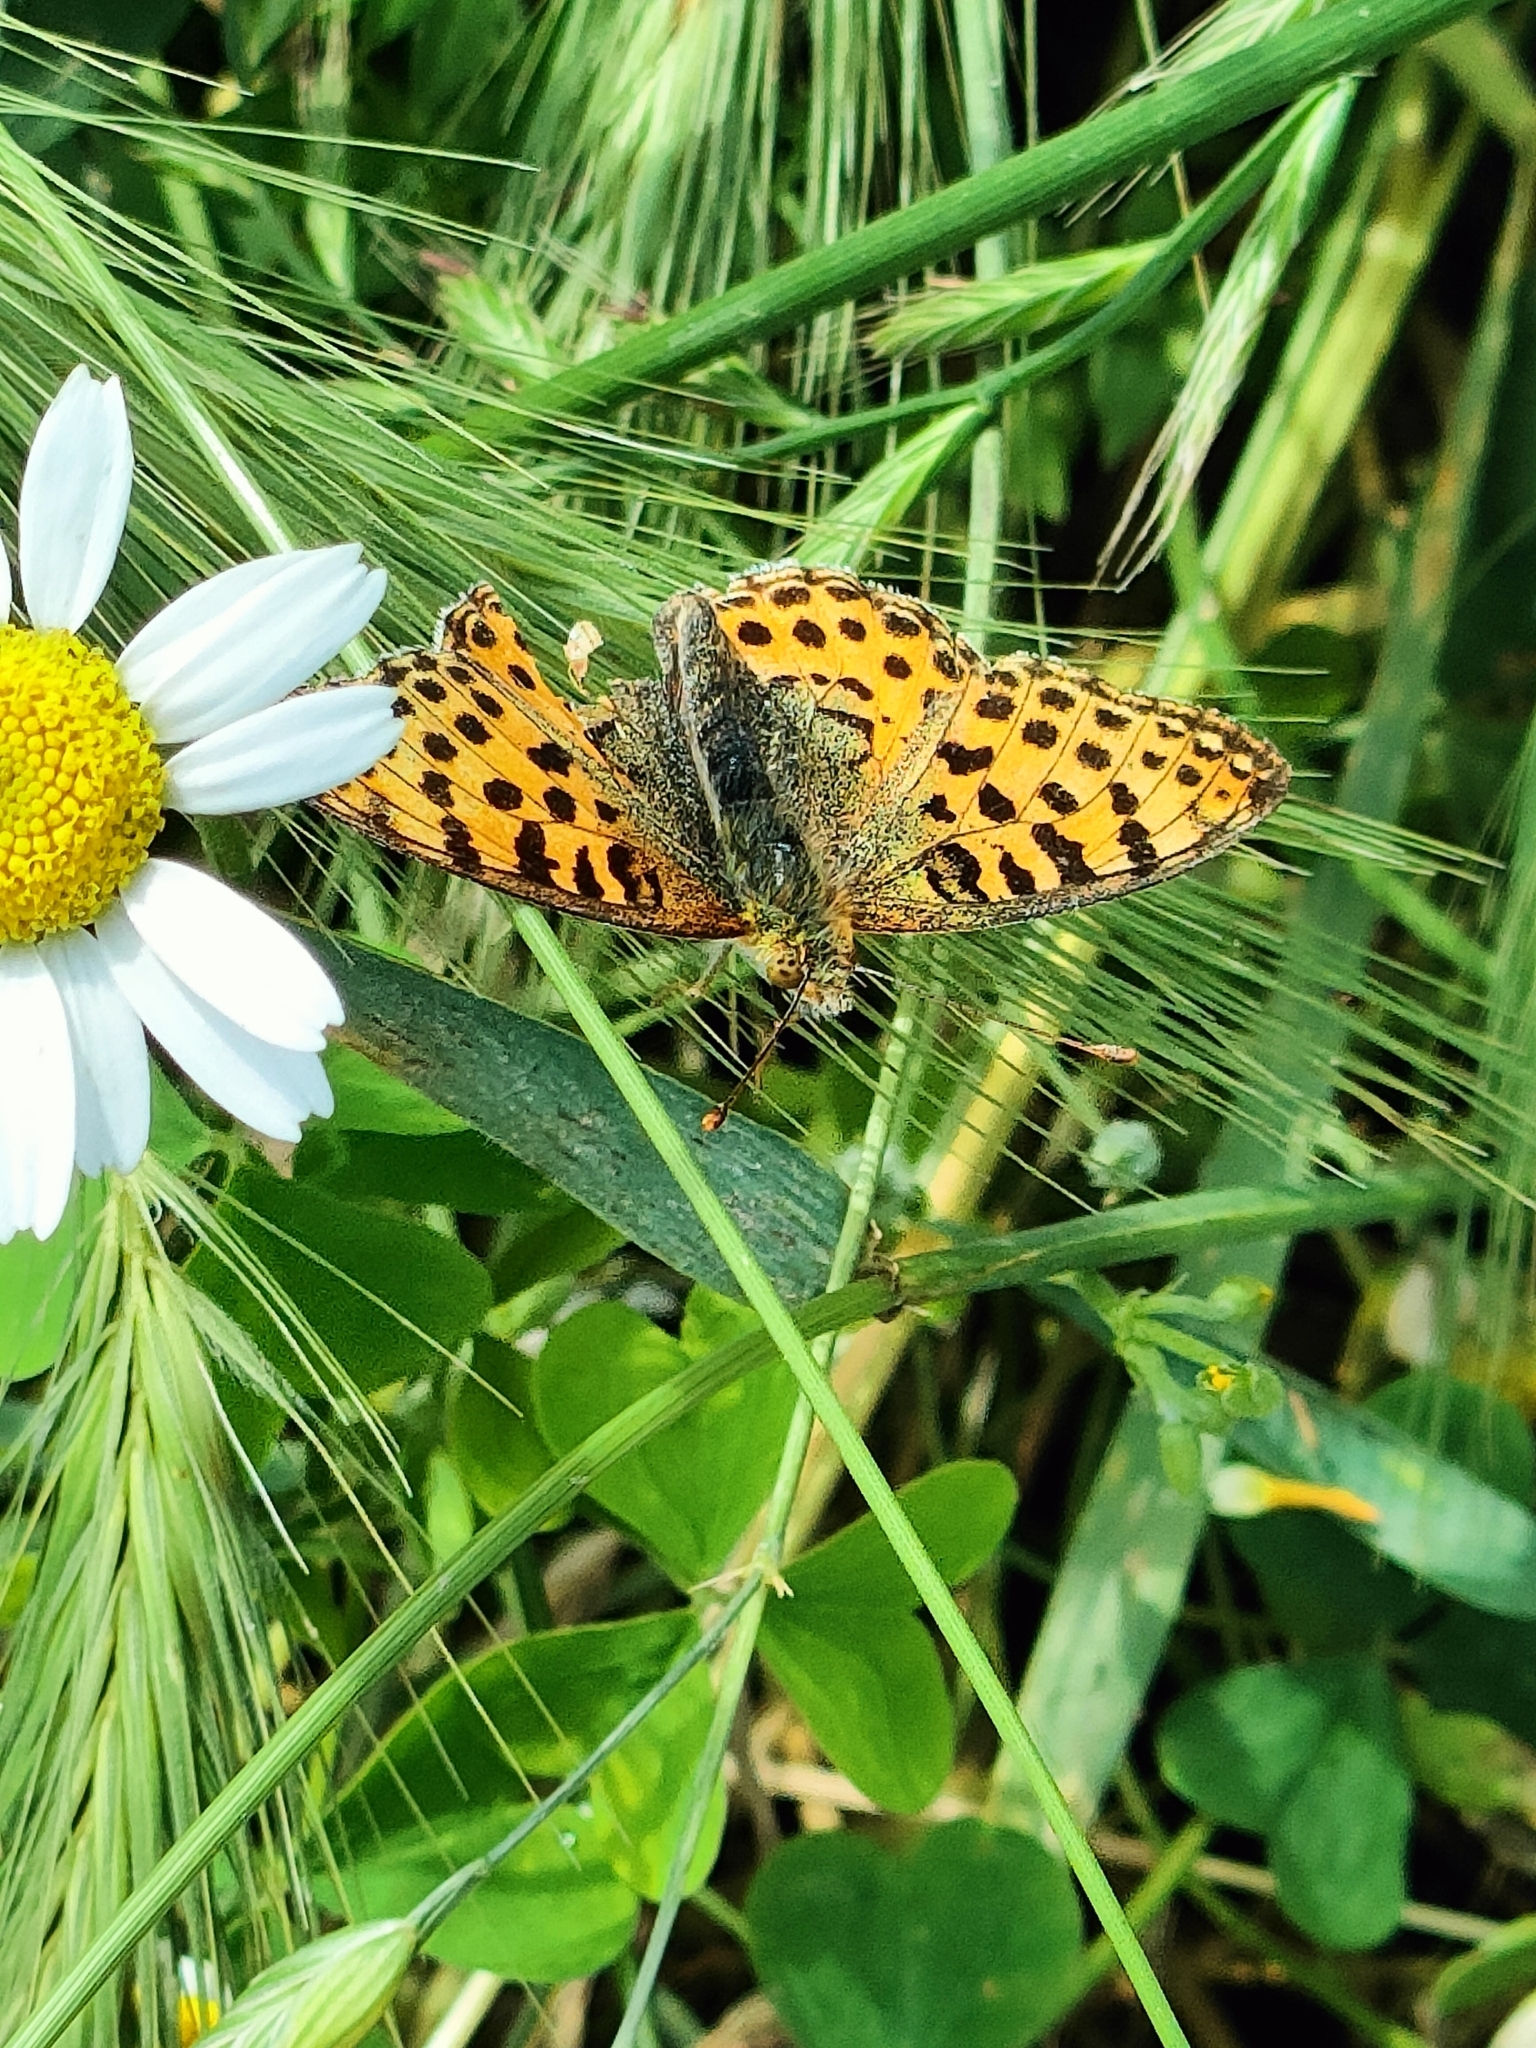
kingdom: Animalia
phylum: Arthropoda
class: Insecta
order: Lepidoptera
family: Nymphalidae
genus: Issoria
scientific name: Issoria lathonia
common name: Queen of spain fritillary
